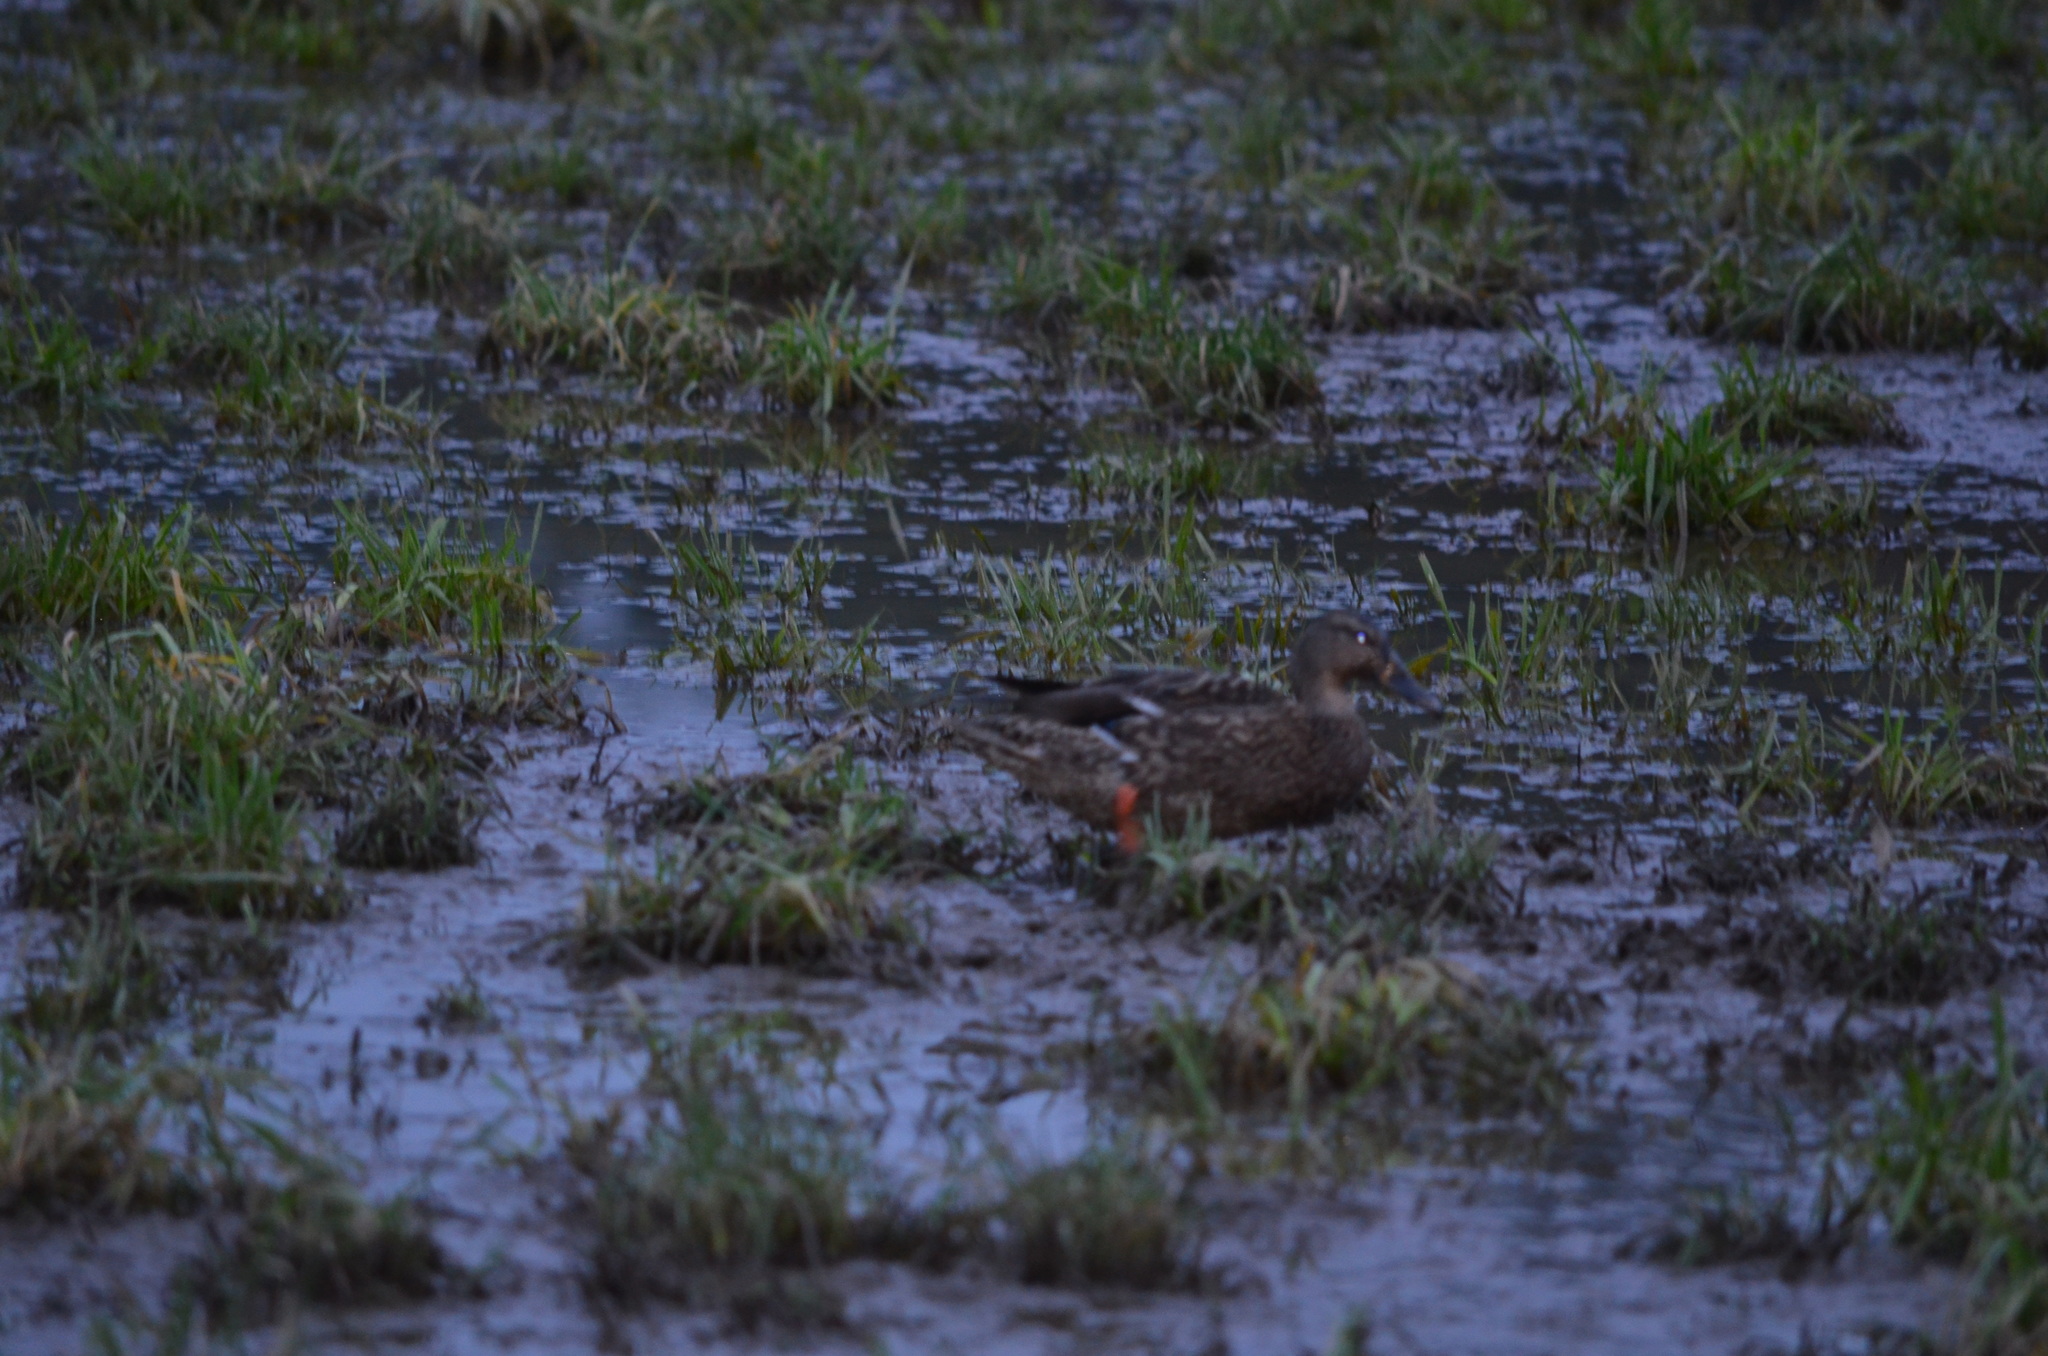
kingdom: Animalia
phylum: Chordata
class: Aves
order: Anseriformes
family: Anatidae
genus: Anas
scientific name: Anas platyrhynchos
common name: Mallard
